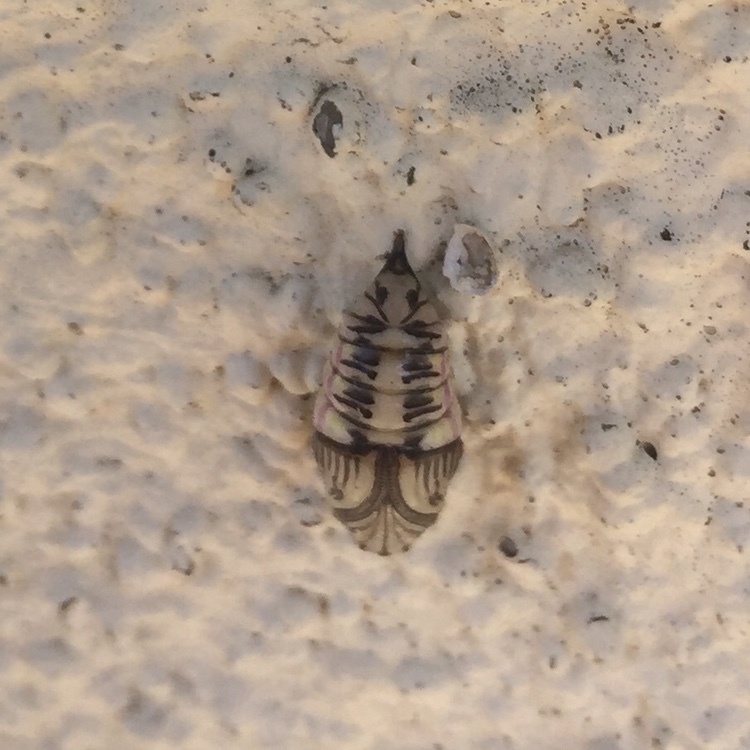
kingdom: Animalia
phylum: Arthropoda
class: Insecta
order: Lepidoptera
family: Notodontidae
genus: Phryganidia
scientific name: Phryganidia californica
